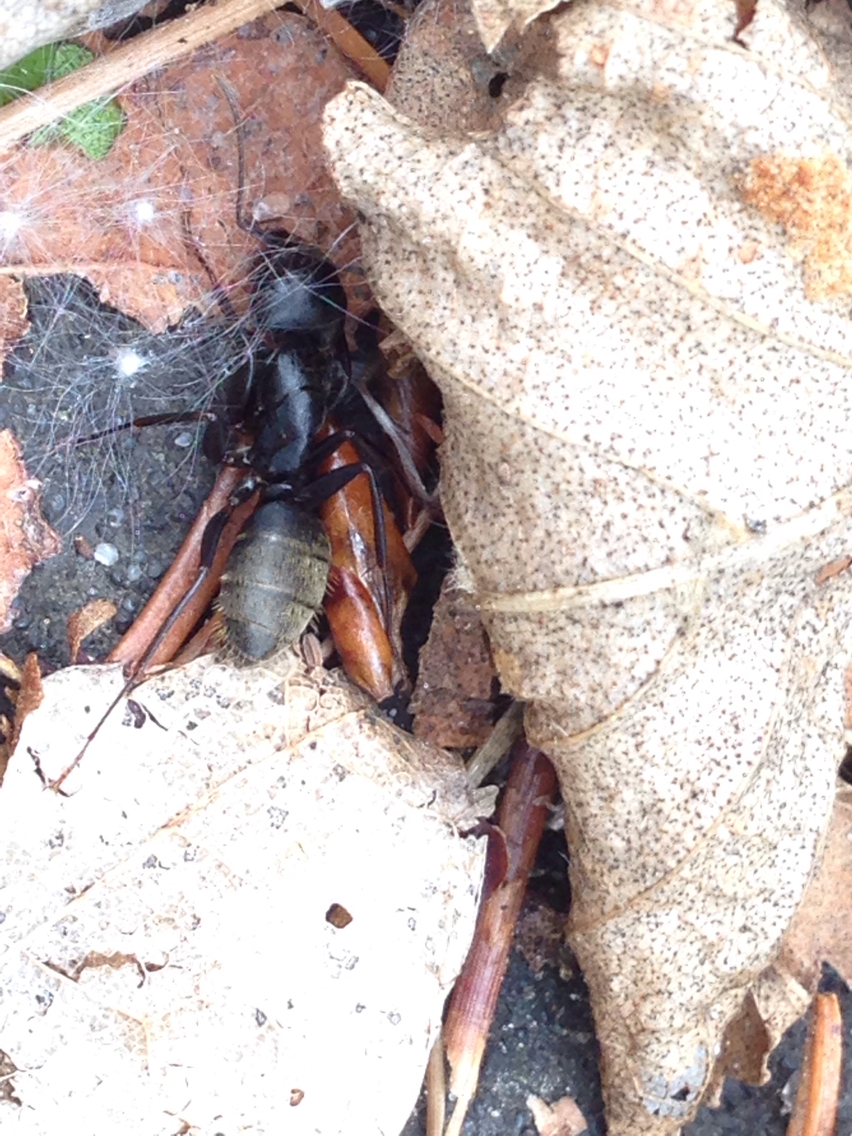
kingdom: Animalia
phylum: Arthropoda
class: Insecta
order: Hymenoptera
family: Formicidae
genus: Camponotus
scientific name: Camponotus pennsylvanicus
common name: Black carpenter ant
